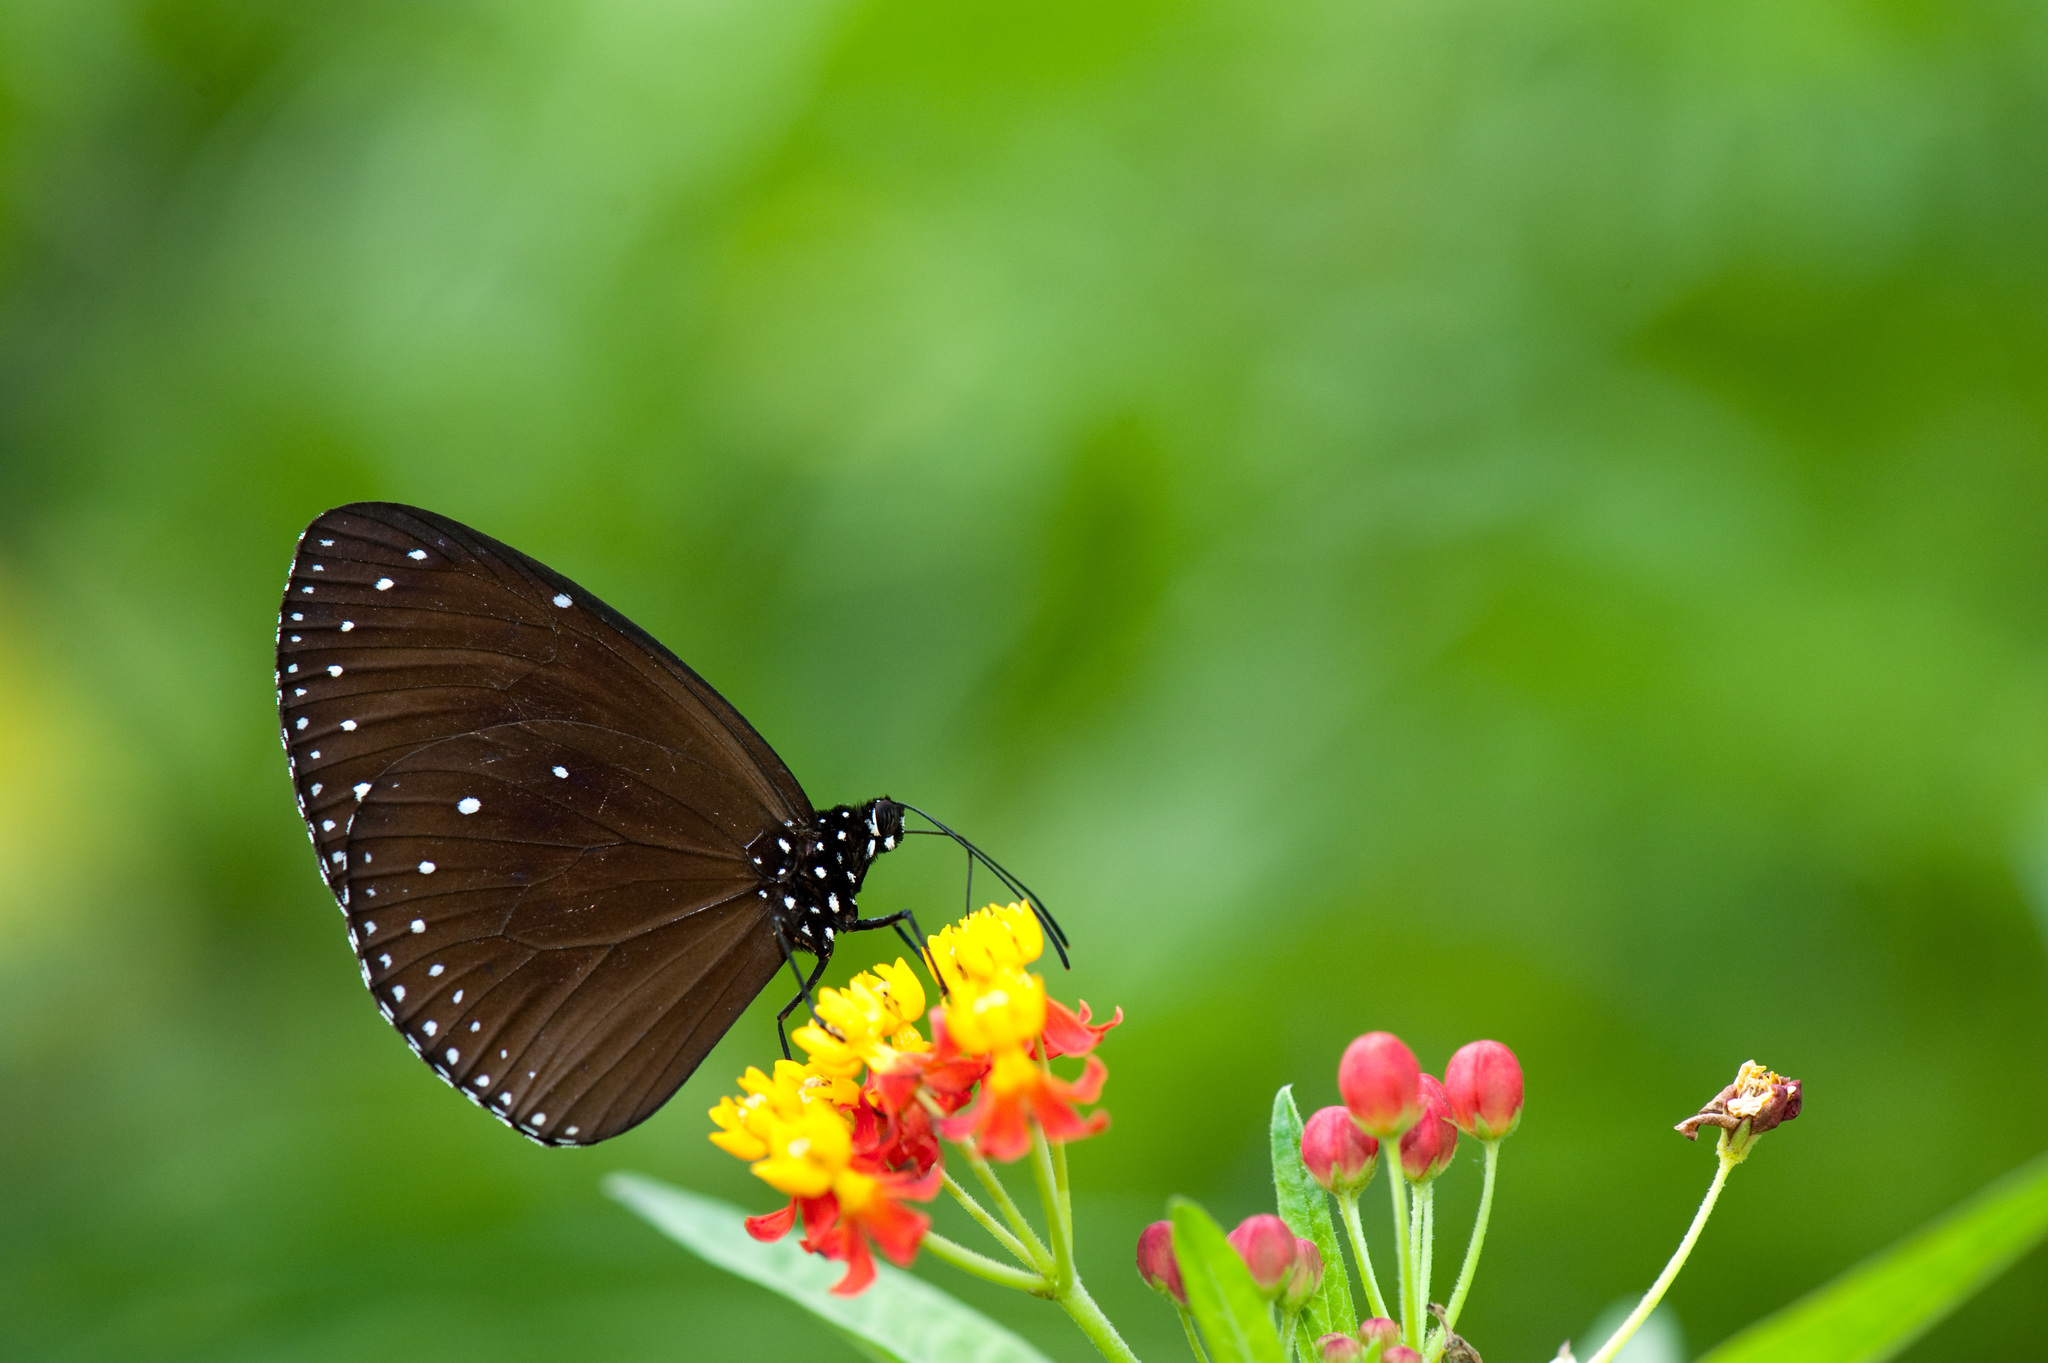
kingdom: Animalia
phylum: Arthropoda
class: Insecta
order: Lepidoptera
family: Nymphalidae
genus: Euploea
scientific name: Euploea tulliolus
